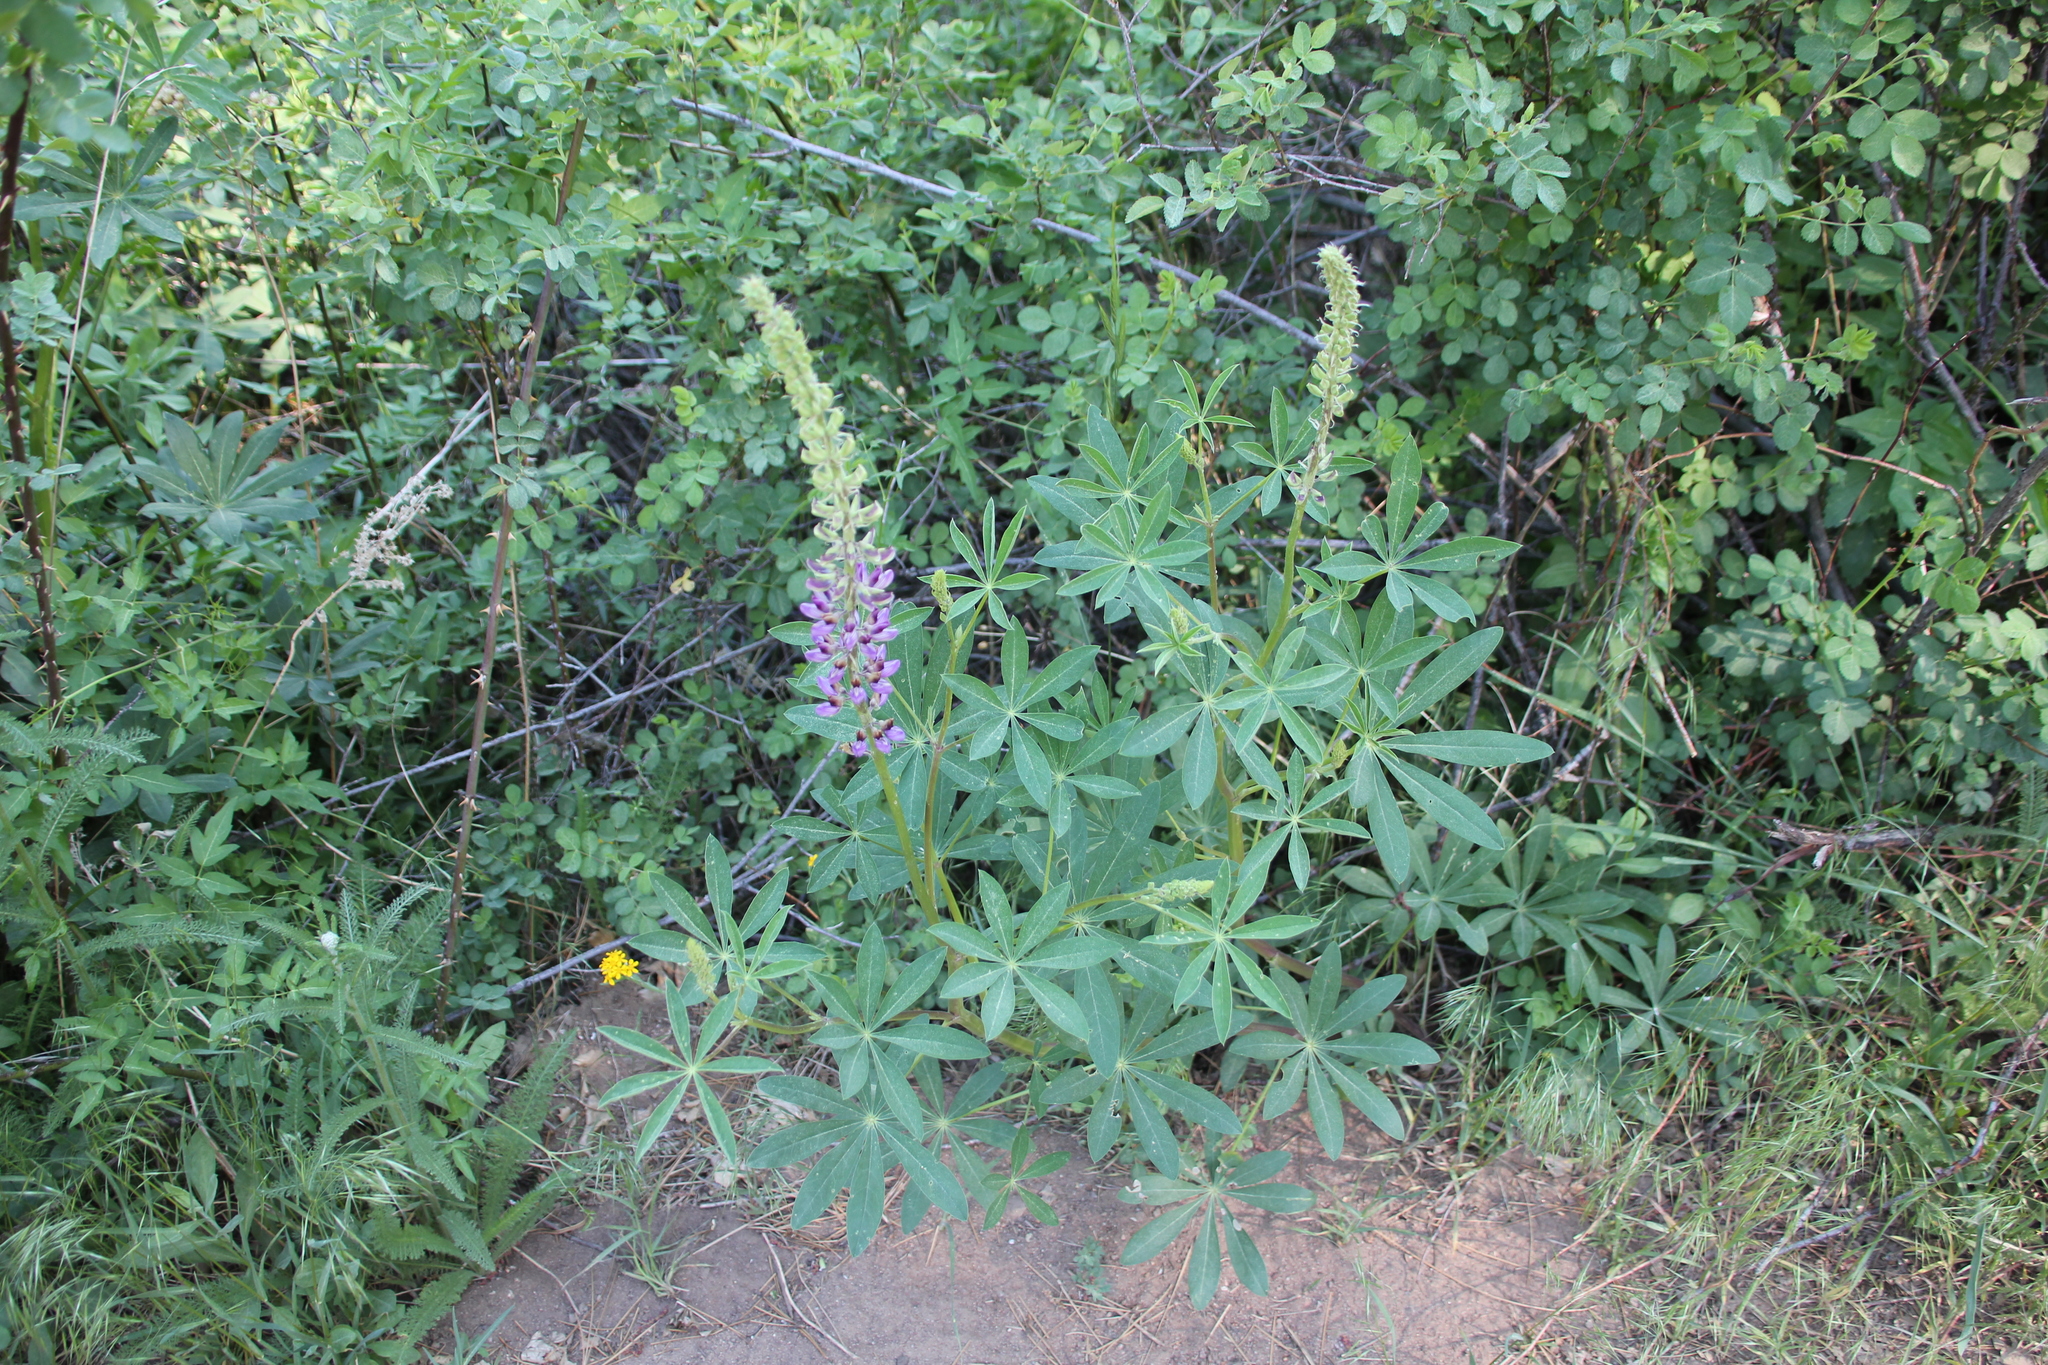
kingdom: Plantae
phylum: Tracheophyta
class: Magnoliopsida
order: Fabales
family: Fabaceae
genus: Lupinus
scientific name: Lupinus latifolius
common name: Broad-leaved lupine
